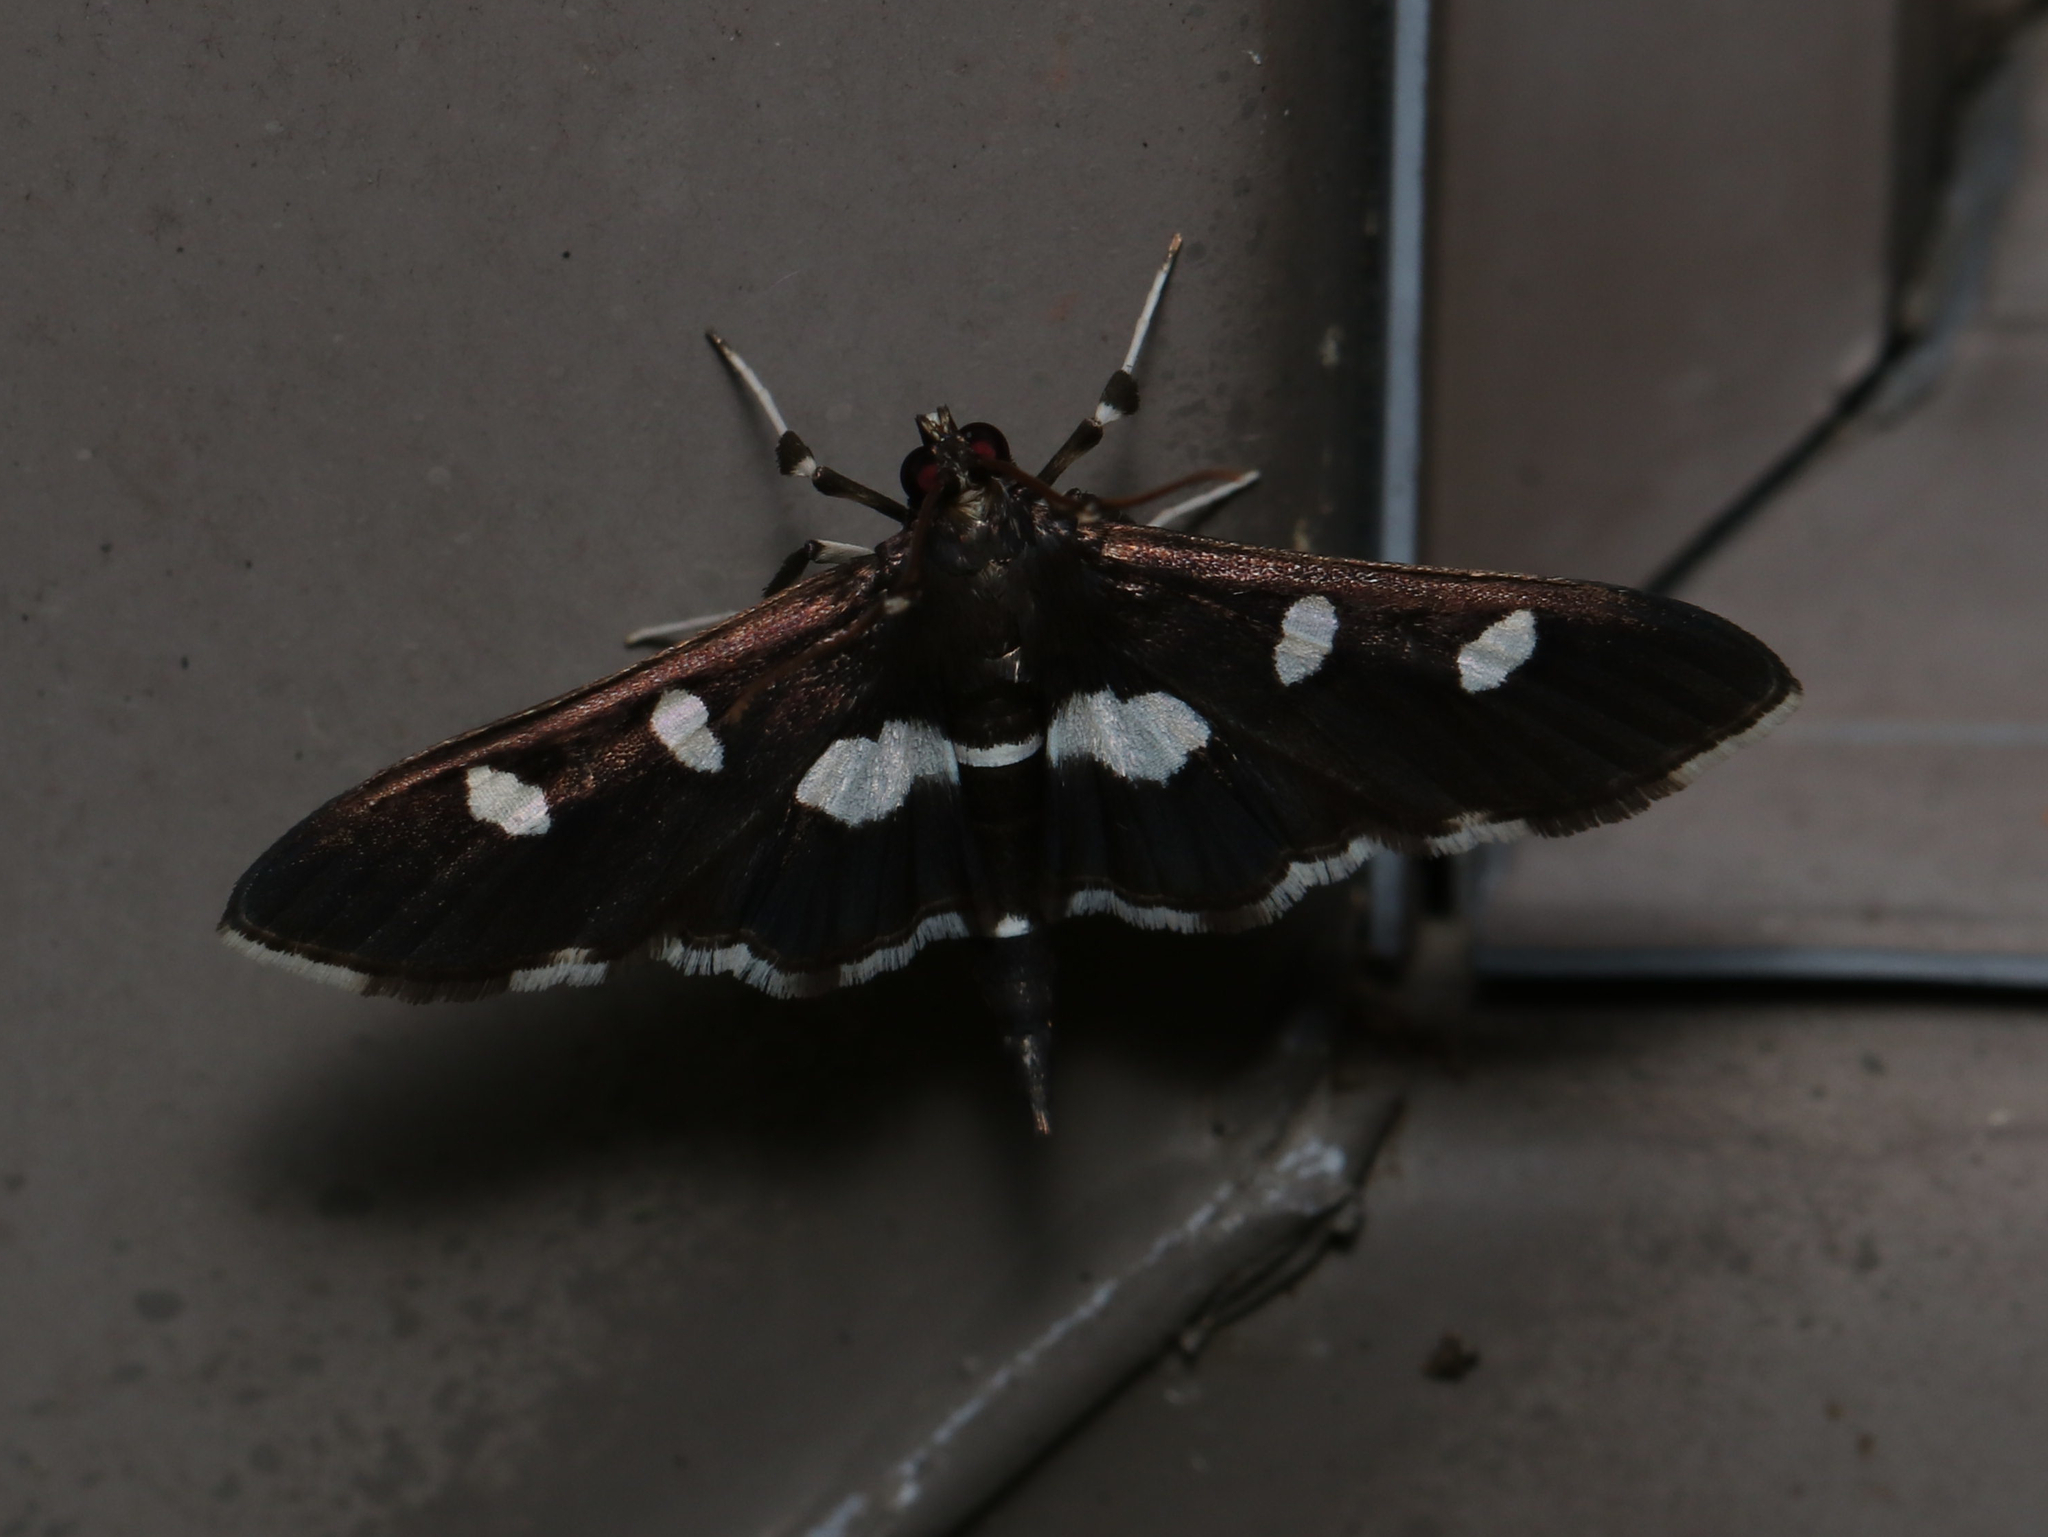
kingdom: Animalia
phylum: Arthropoda
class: Insecta
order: Lepidoptera
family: Crambidae
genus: Desmia
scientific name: Desmia
